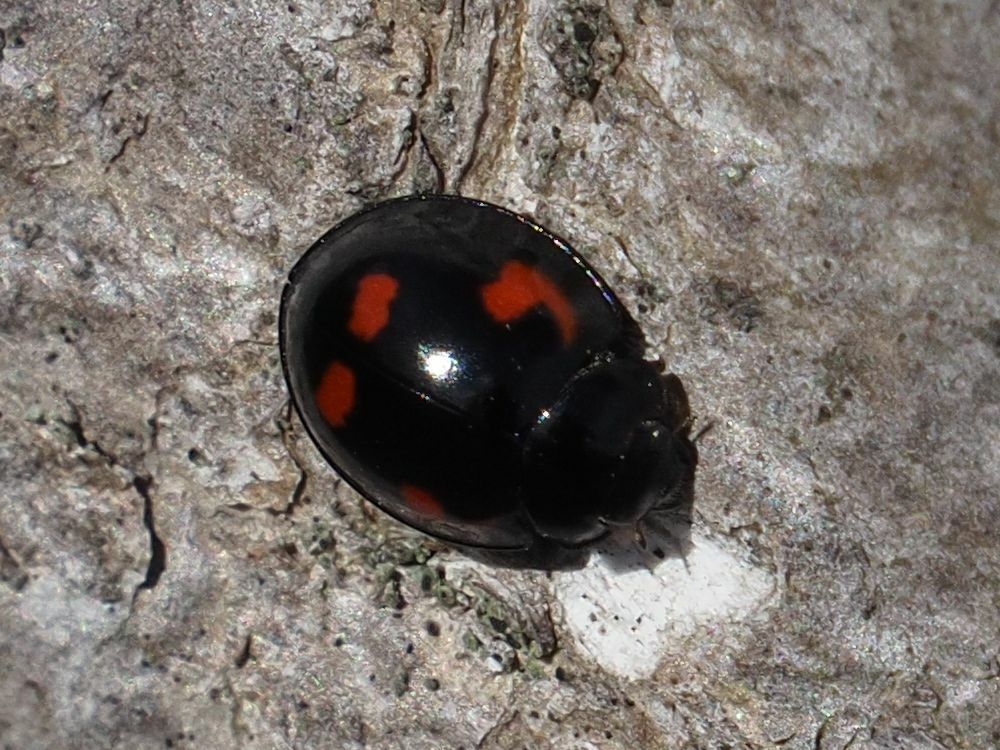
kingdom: Animalia
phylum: Arthropoda
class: Insecta
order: Coleoptera
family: Coccinellidae
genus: Brumus
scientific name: Brumus quadripustulatus
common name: Ladybird beetle
